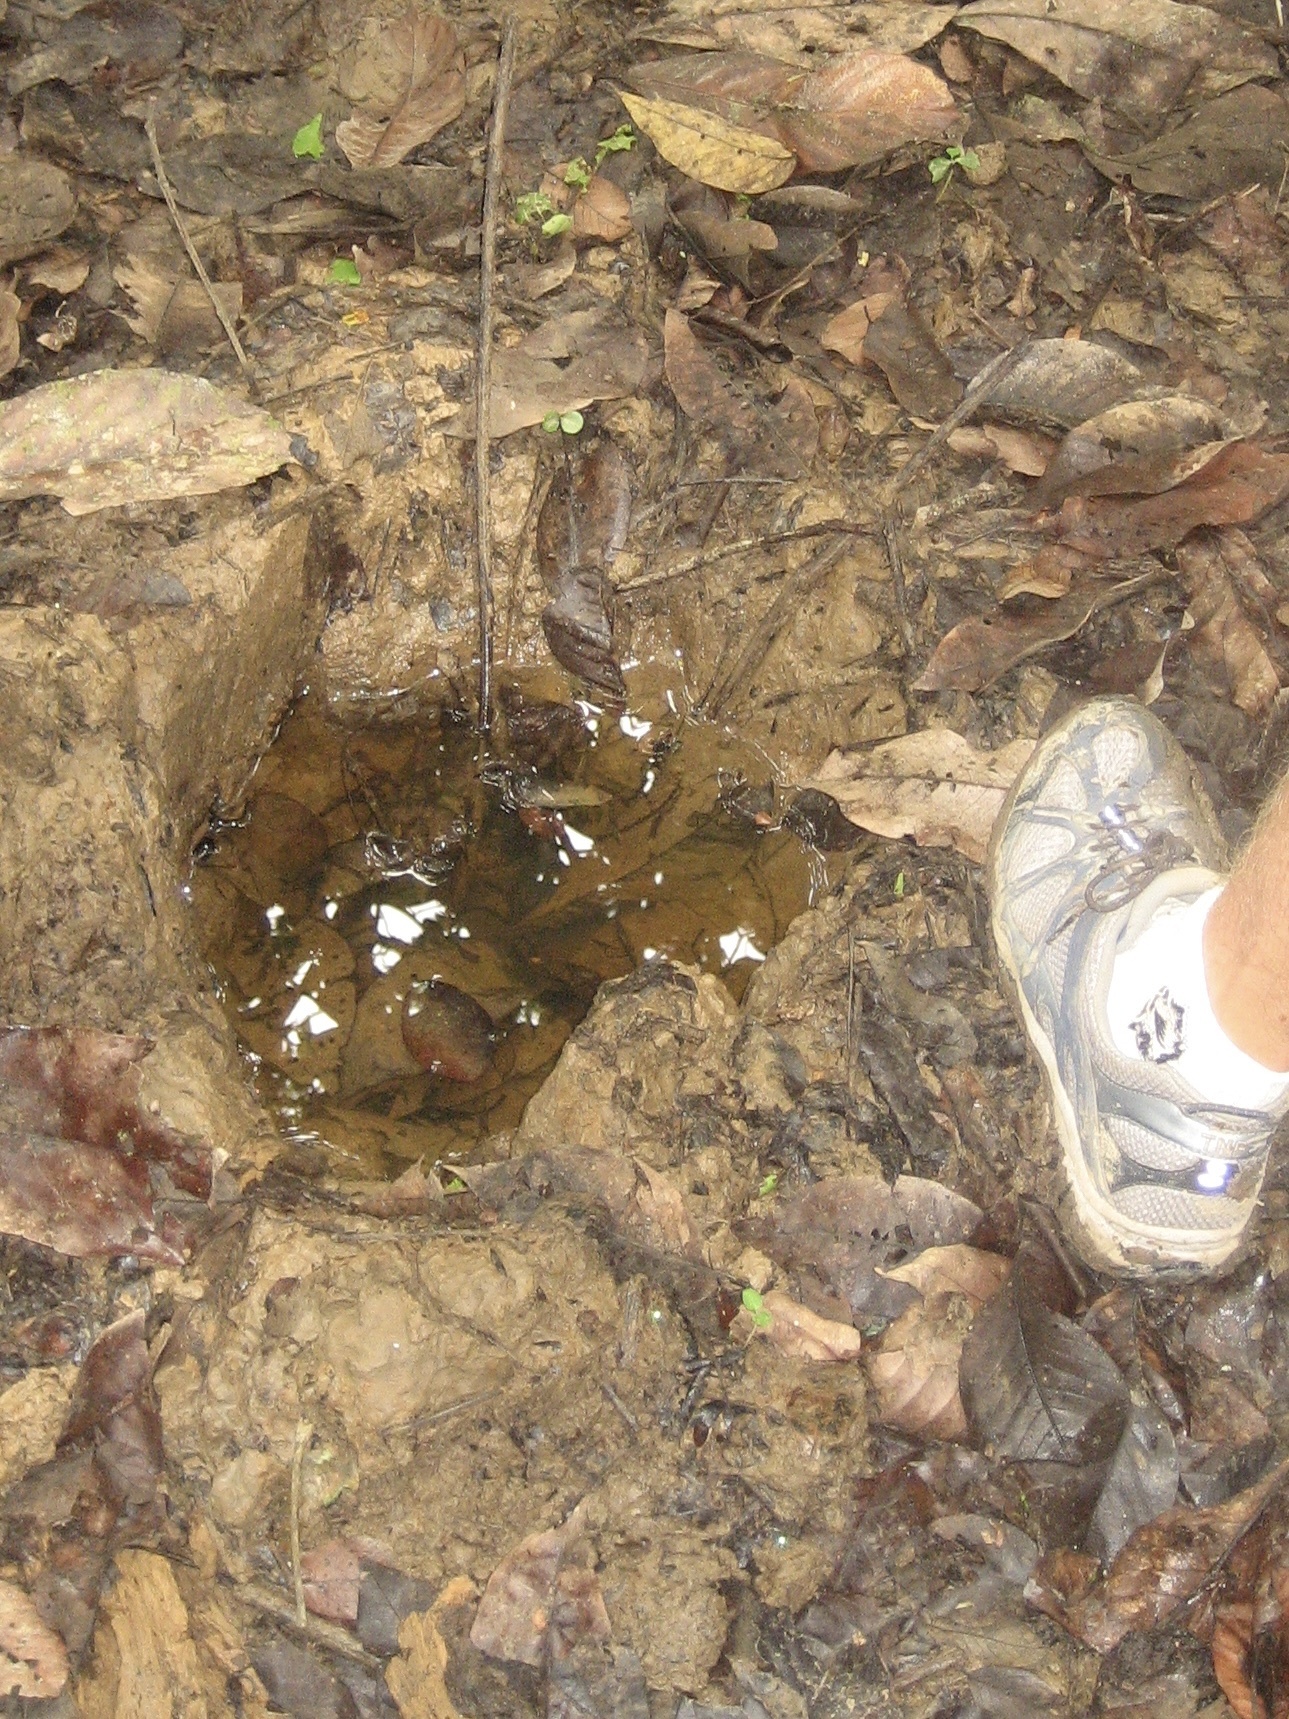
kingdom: Animalia
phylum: Chordata
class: Mammalia
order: Proboscidea
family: Elephantidae
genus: Elephas
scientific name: Elephas maximus
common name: Asian elephant
